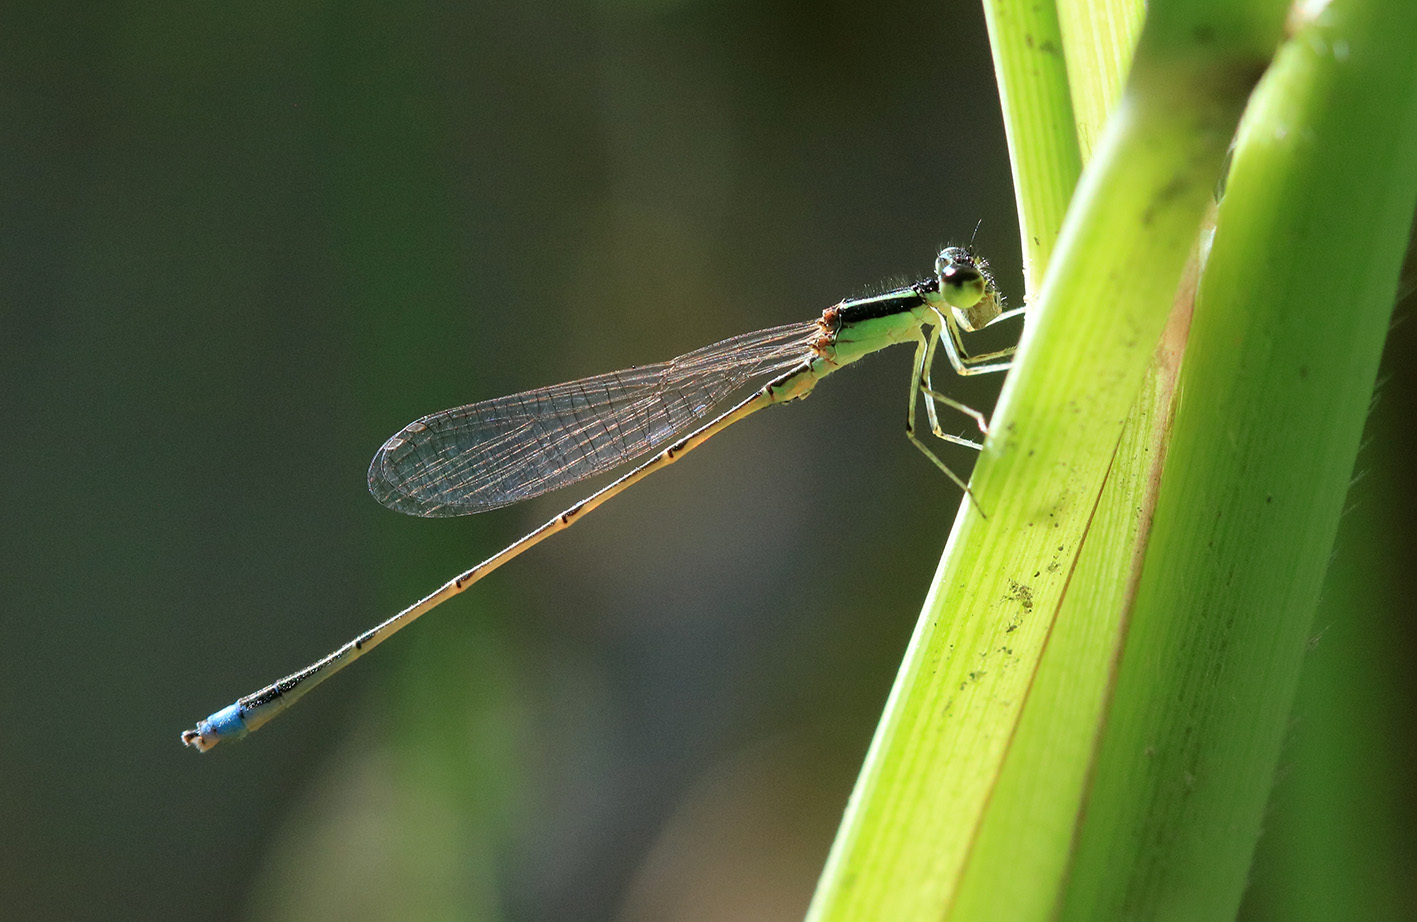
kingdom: Animalia
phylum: Arthropoda
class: Insecta
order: Odonata
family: Coenagrionidae
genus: Argentagrion
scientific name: Argentagrion ambiguum
